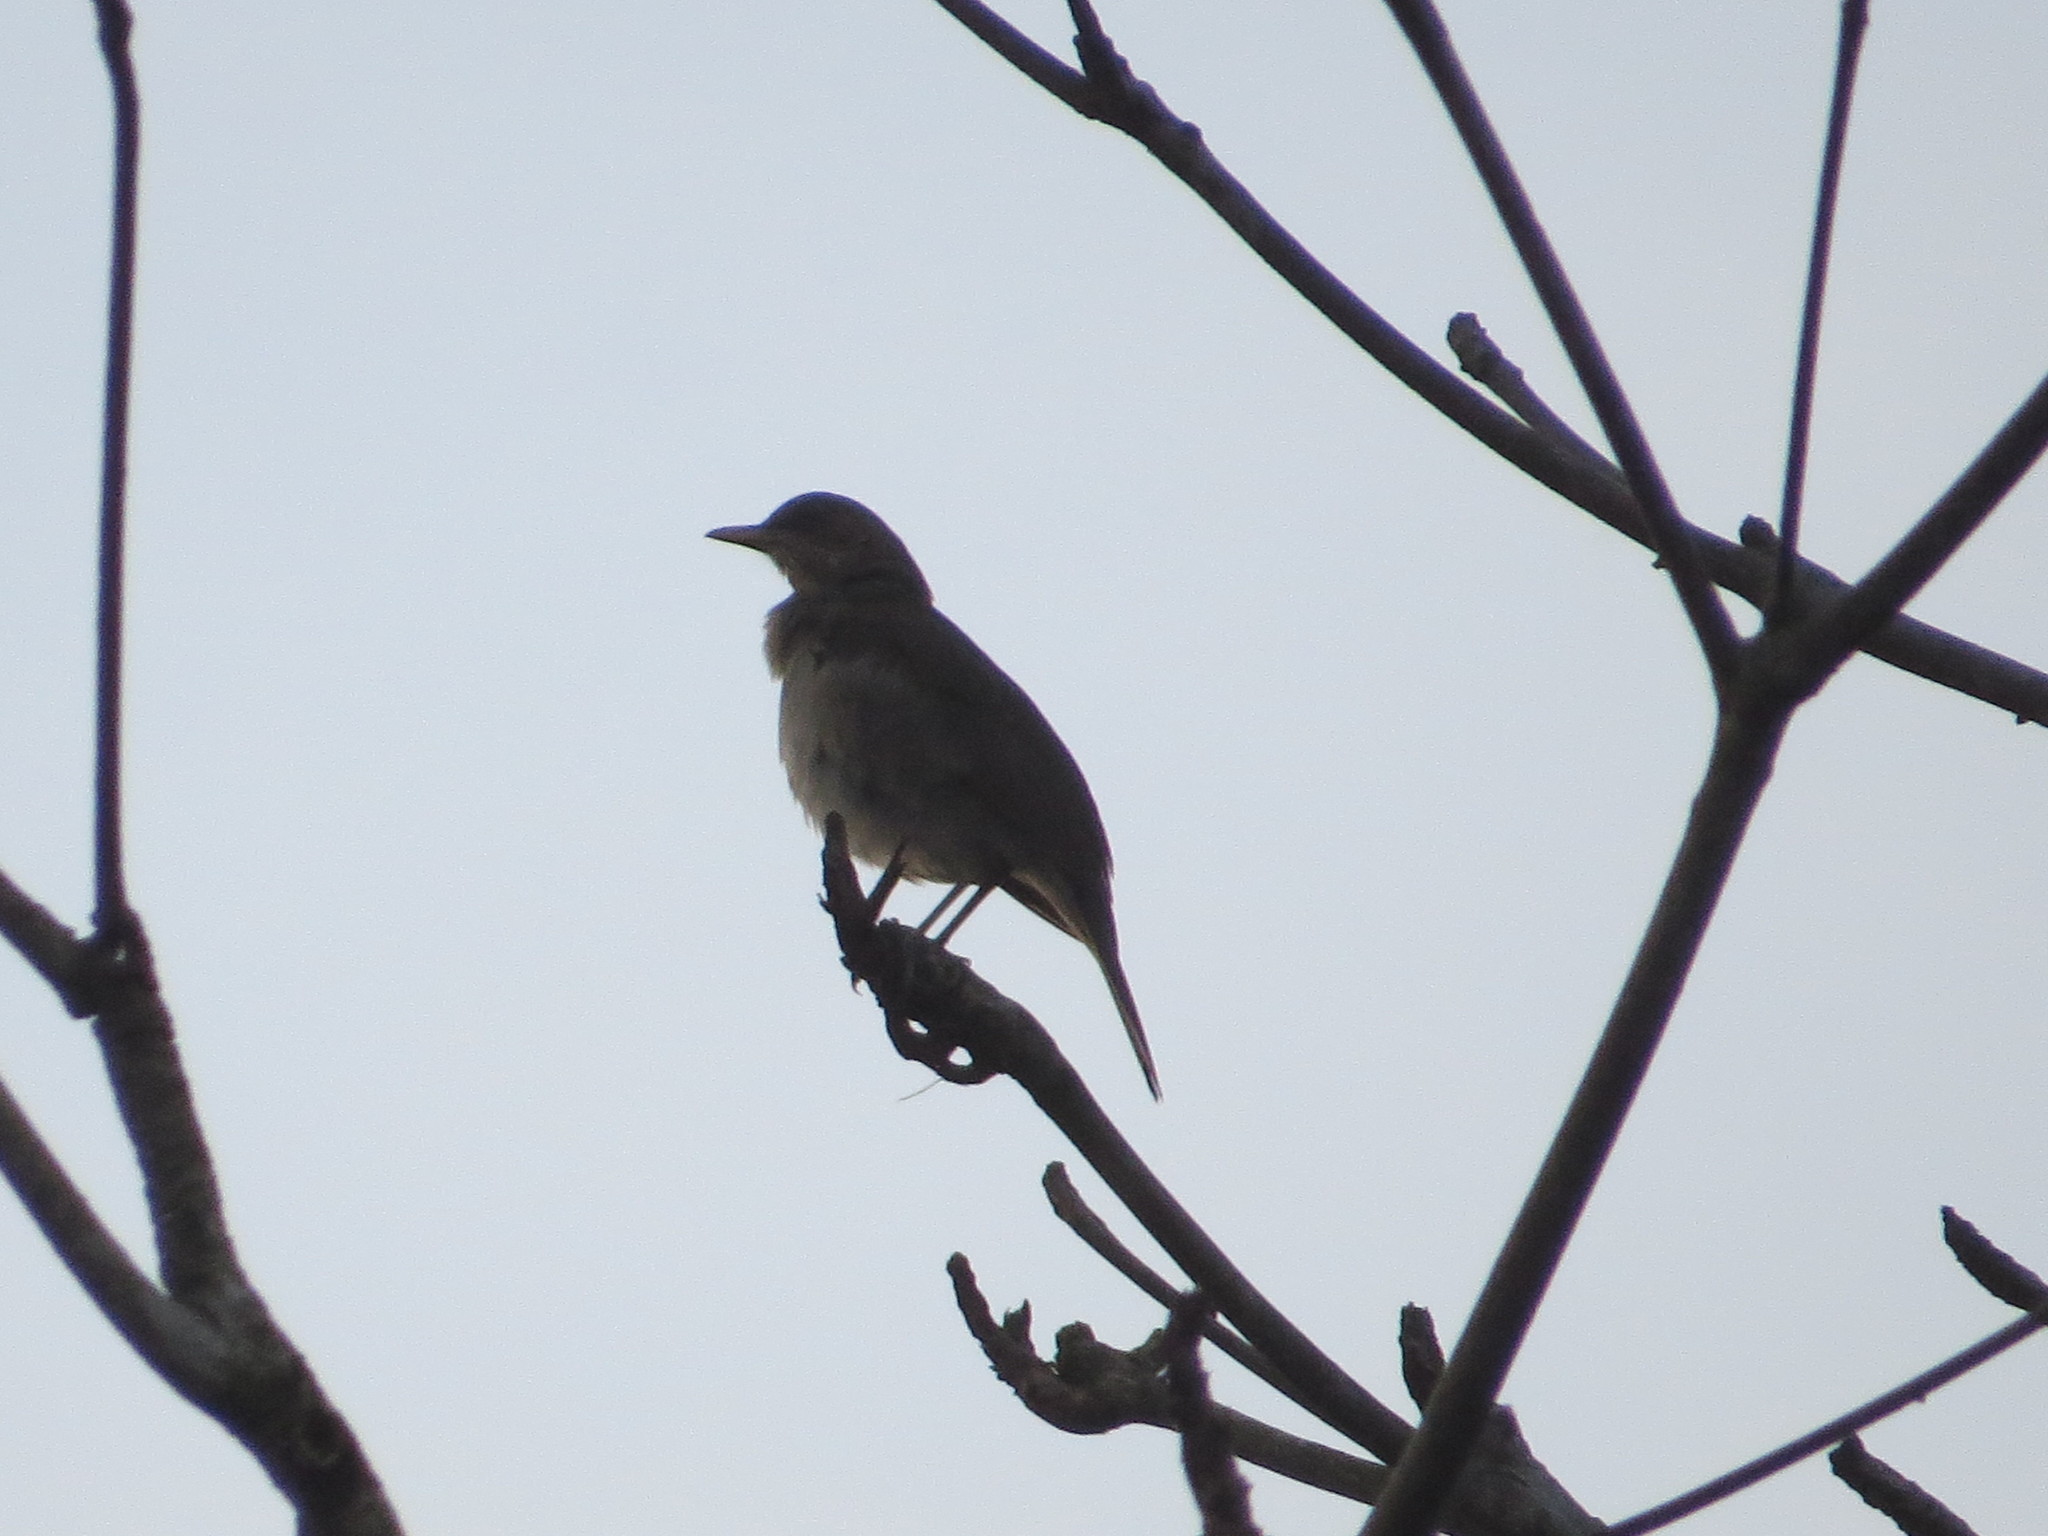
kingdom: Animalia
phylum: Chordata
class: Aves
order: Passeriformes
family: Turdidae
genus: Turdus
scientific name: Turdus amaurochalinus
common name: Creamy-bellied thrush
